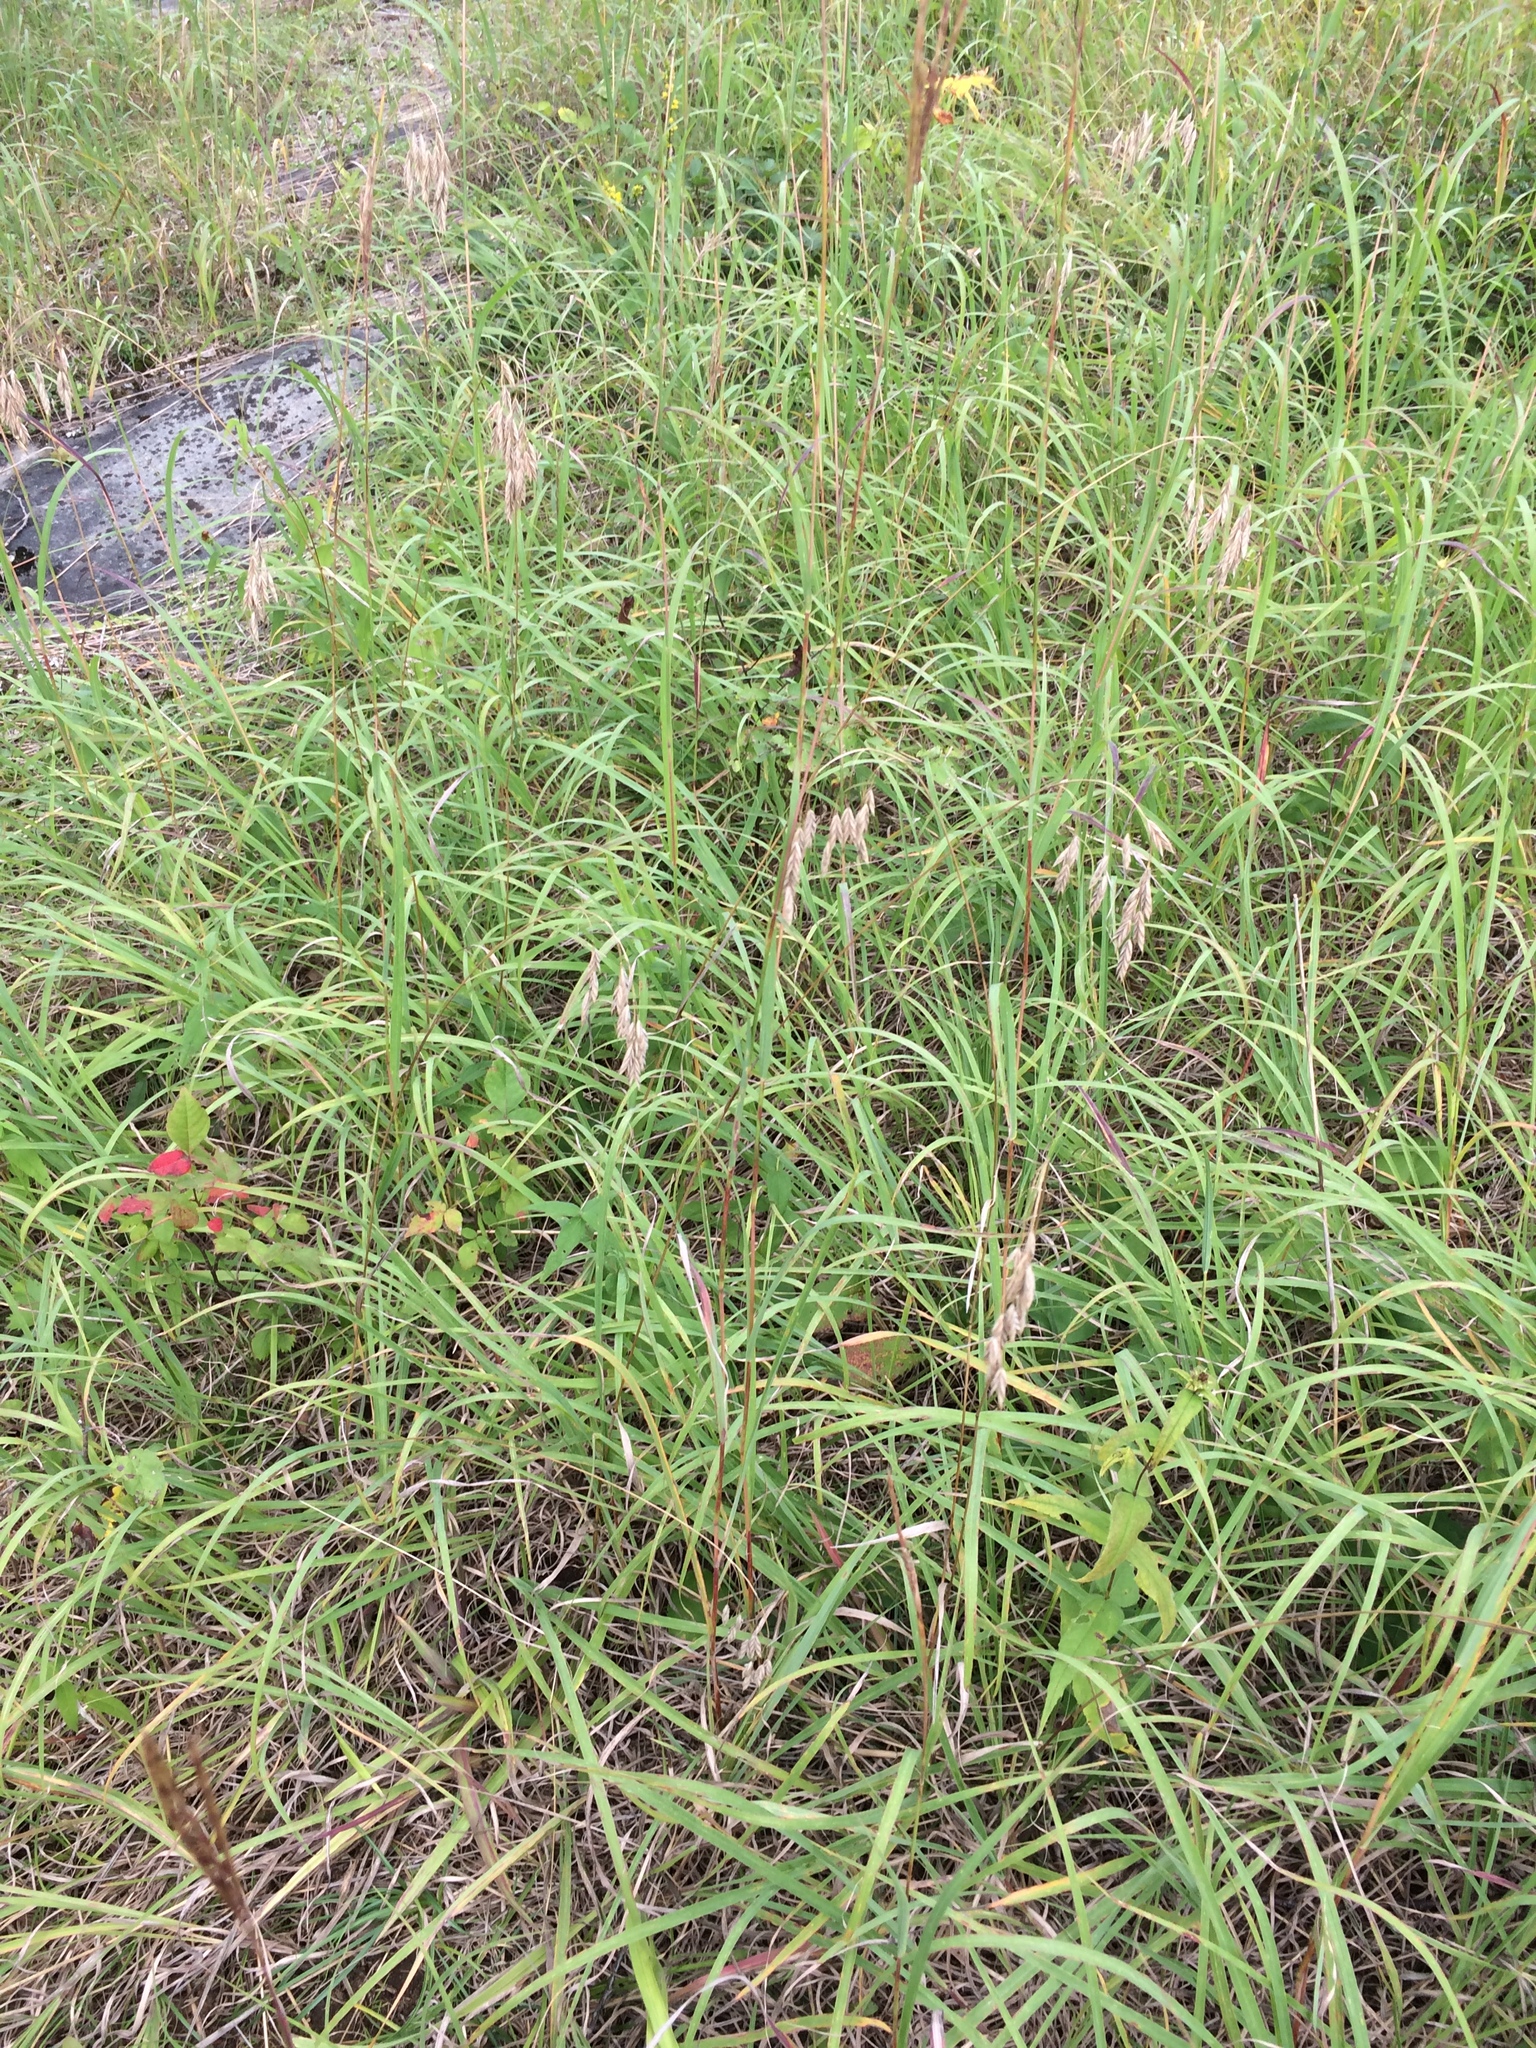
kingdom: Plantae
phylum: Tracheophyta
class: Liliopsida
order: Poales
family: Poaceae
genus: Bromus
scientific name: Bromus kalmii
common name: Kalm brome
